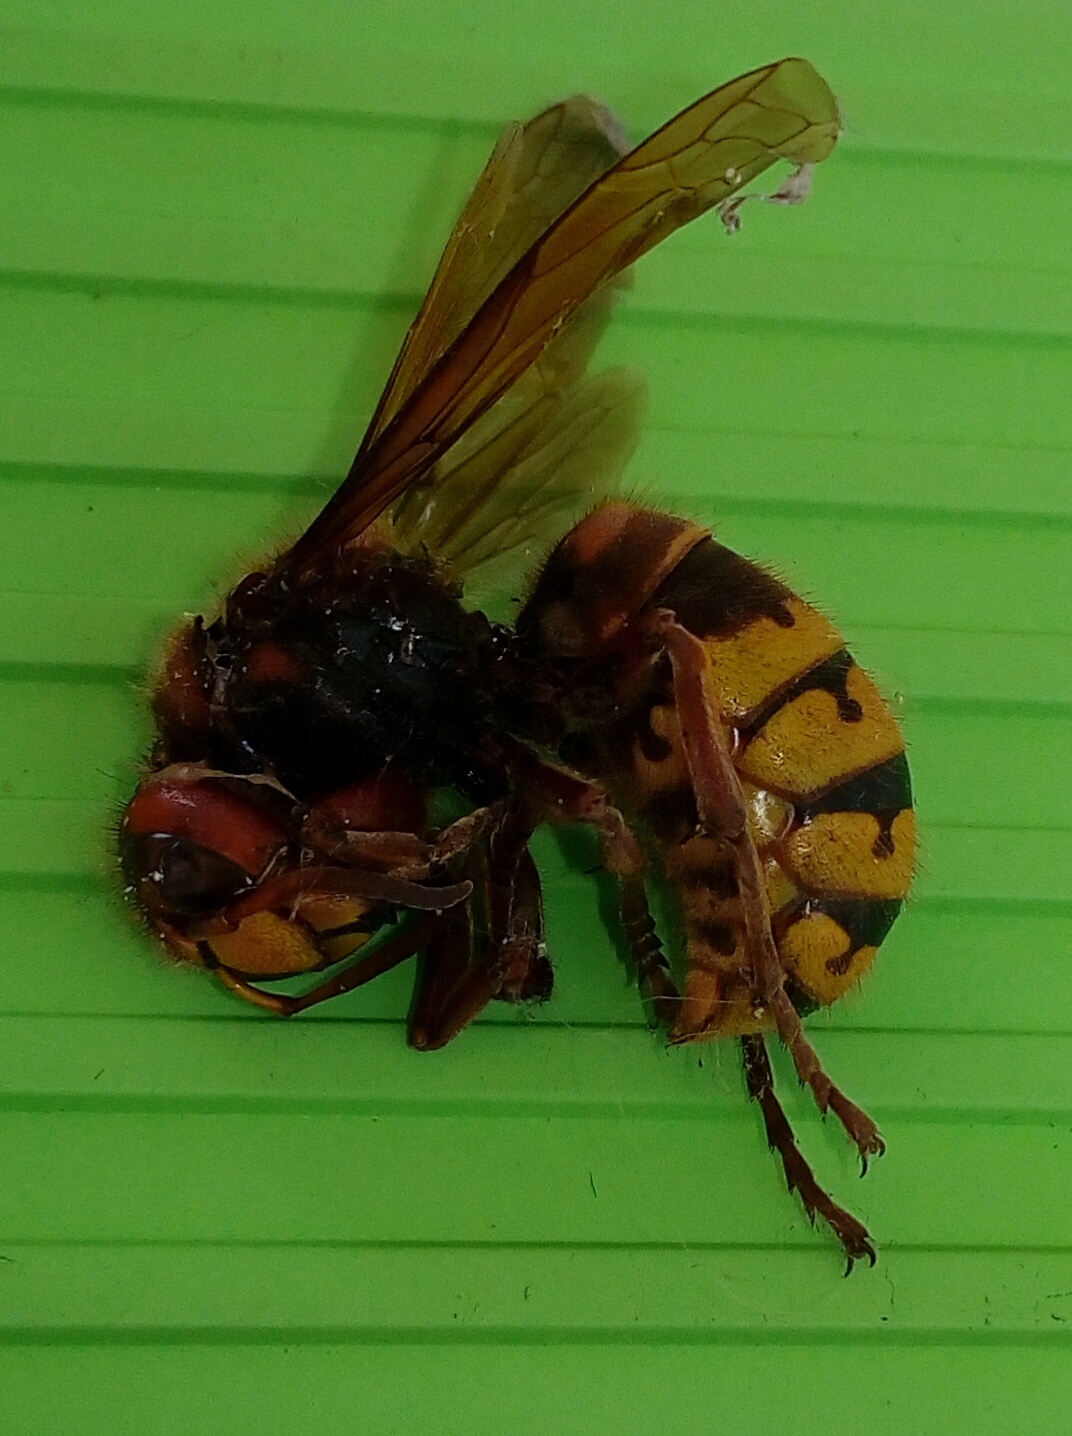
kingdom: Animalia
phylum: Arthropoda
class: Insecta
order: Hymenoptera
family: Vespidae
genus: Vespa
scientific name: Vespa crabro
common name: Hornet
